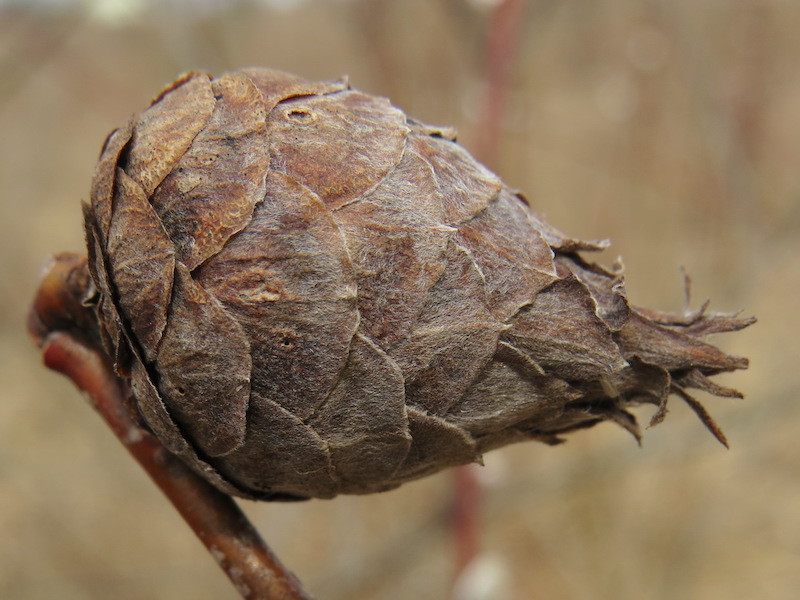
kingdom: Animalia
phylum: Arthropoda
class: Insecta
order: Diptera
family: Cecidomyiidae
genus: Rabdophaga
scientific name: Rabdophaga salicisgnaphaloides
